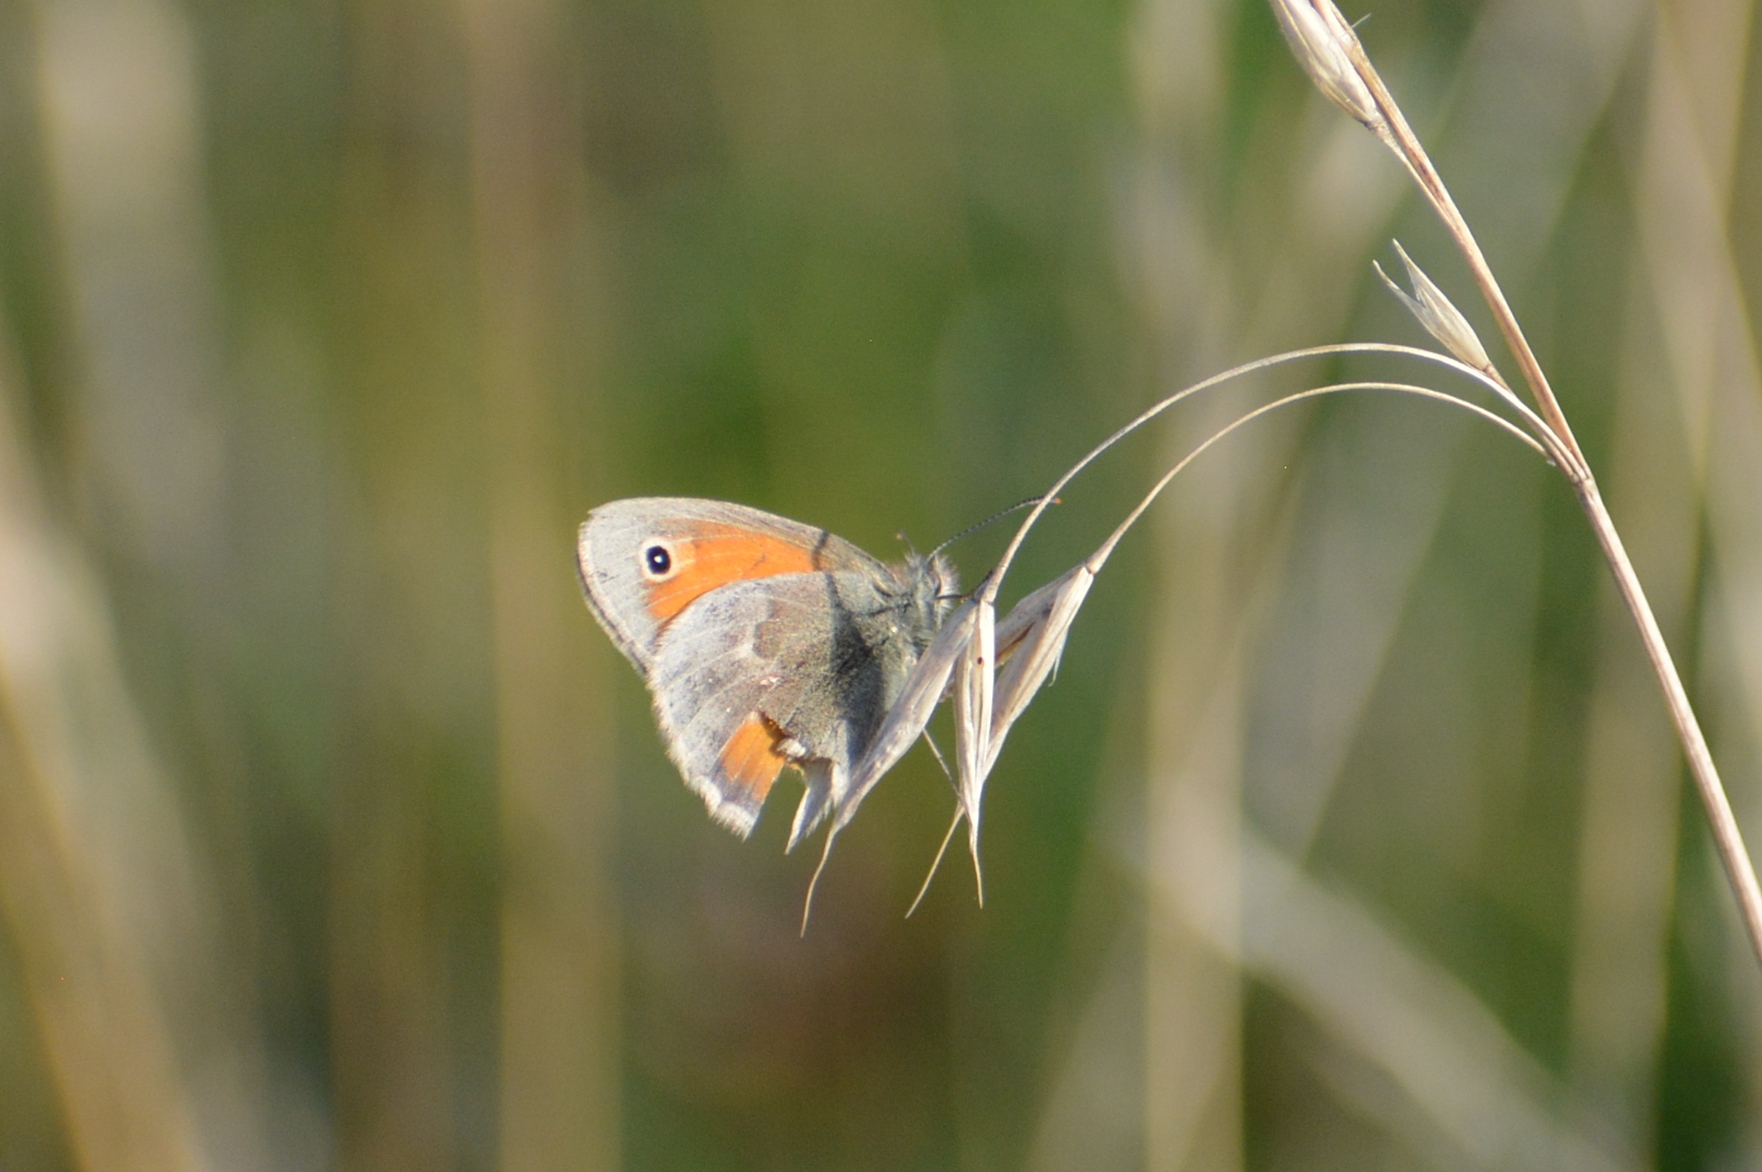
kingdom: Animalia
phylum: Arthropoda
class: Insecta
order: Lepidoptera
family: Nymphalidae
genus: Coenonympha
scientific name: Coenonympha pamphilus
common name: Small heath
